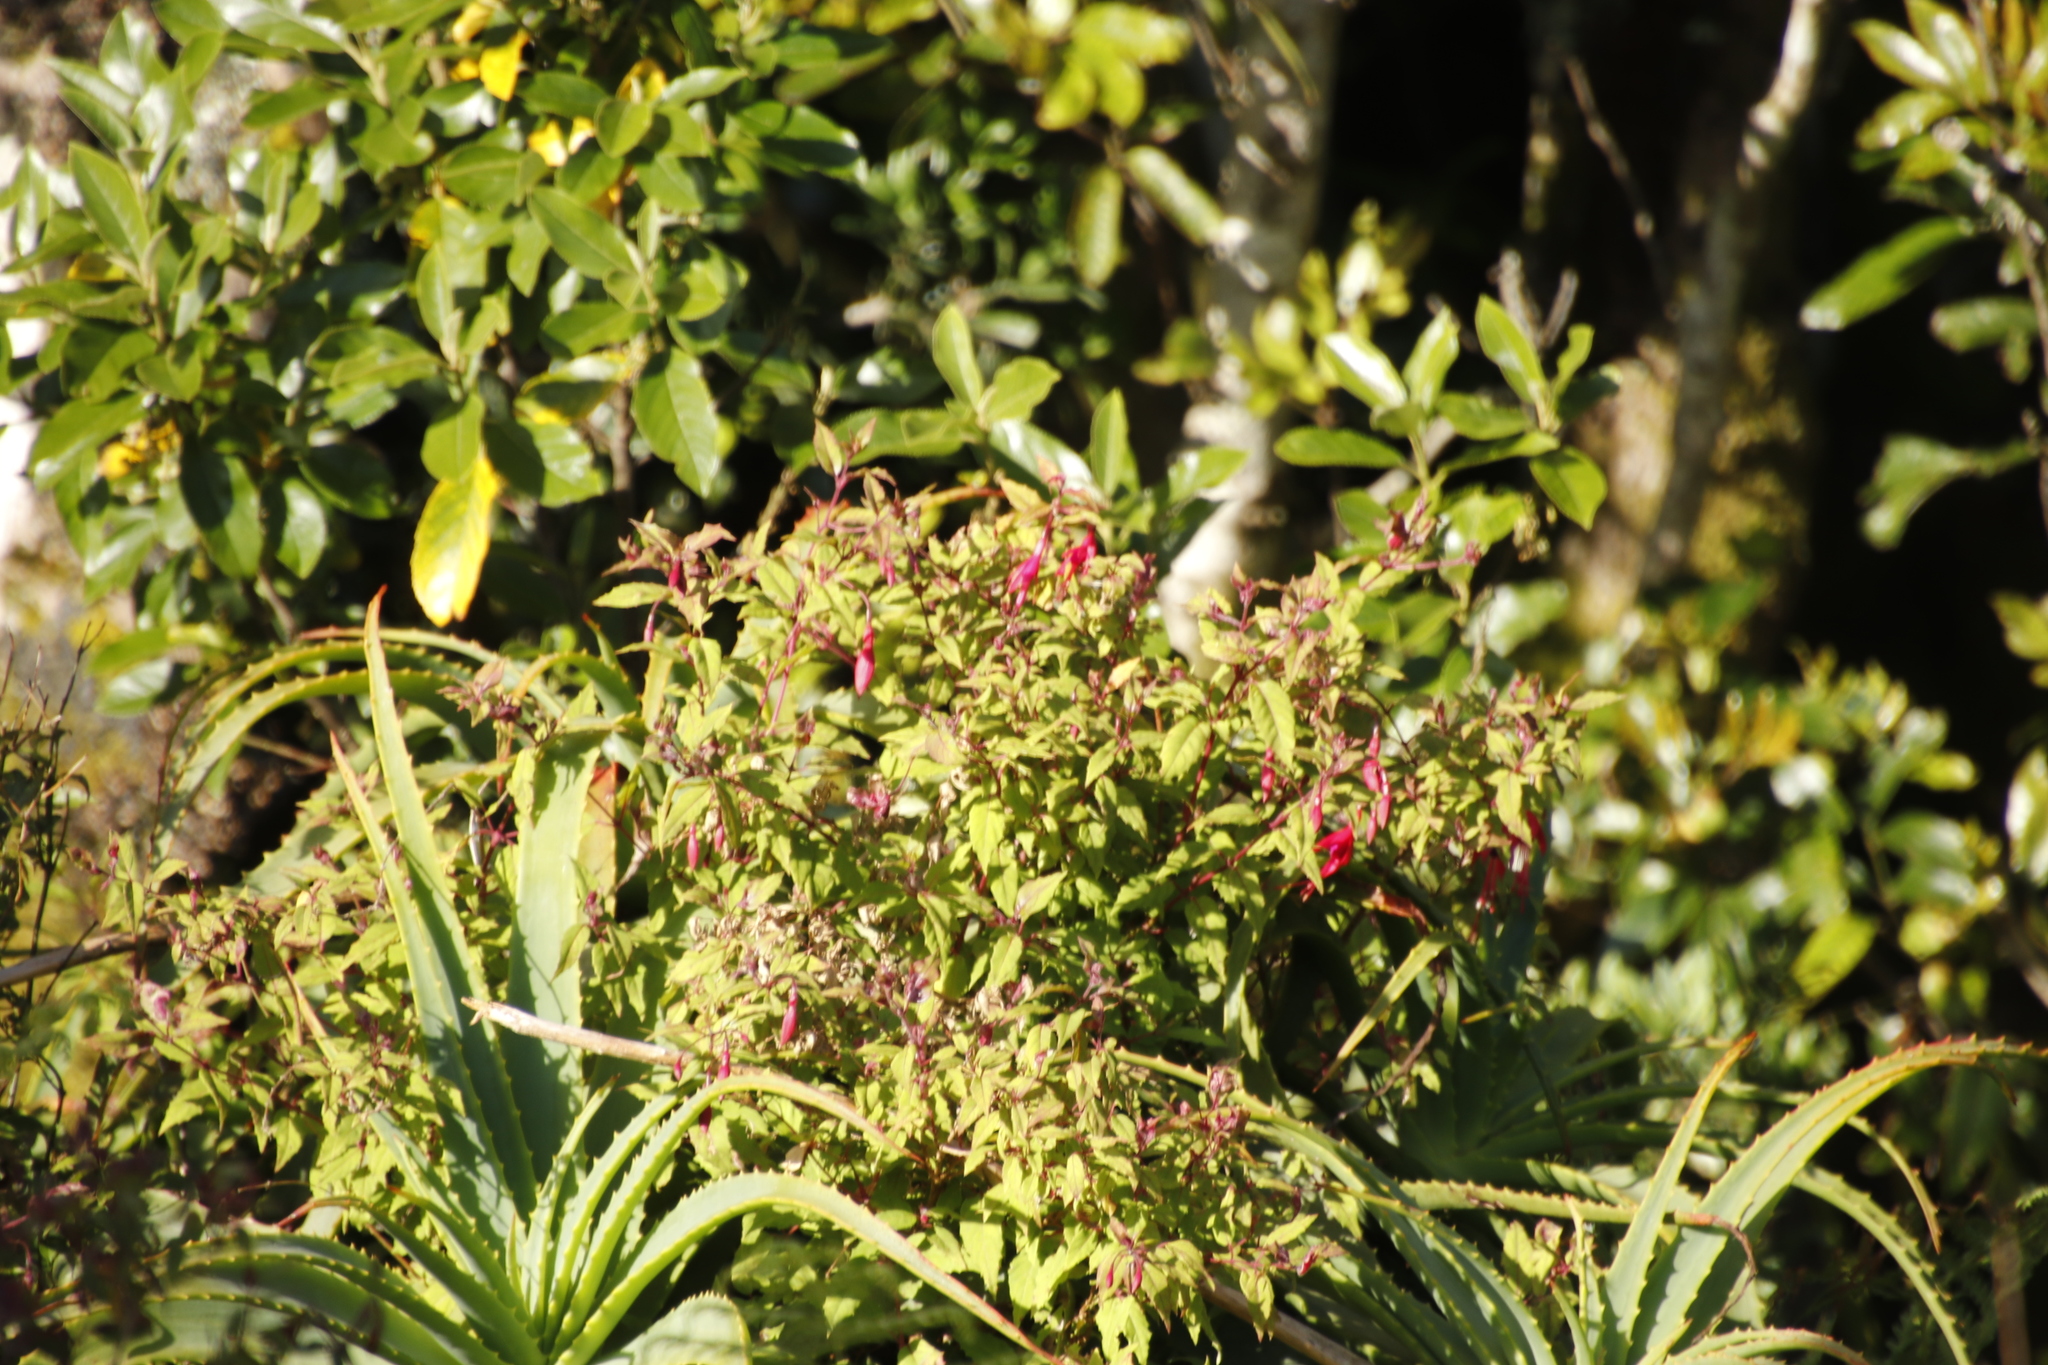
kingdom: Plantae
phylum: Tracheophyta
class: Magnoliopsida
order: Myrtales
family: Onagraceae
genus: Fuchsia
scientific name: Fuchsia magellanica
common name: Hardy fuchsia
